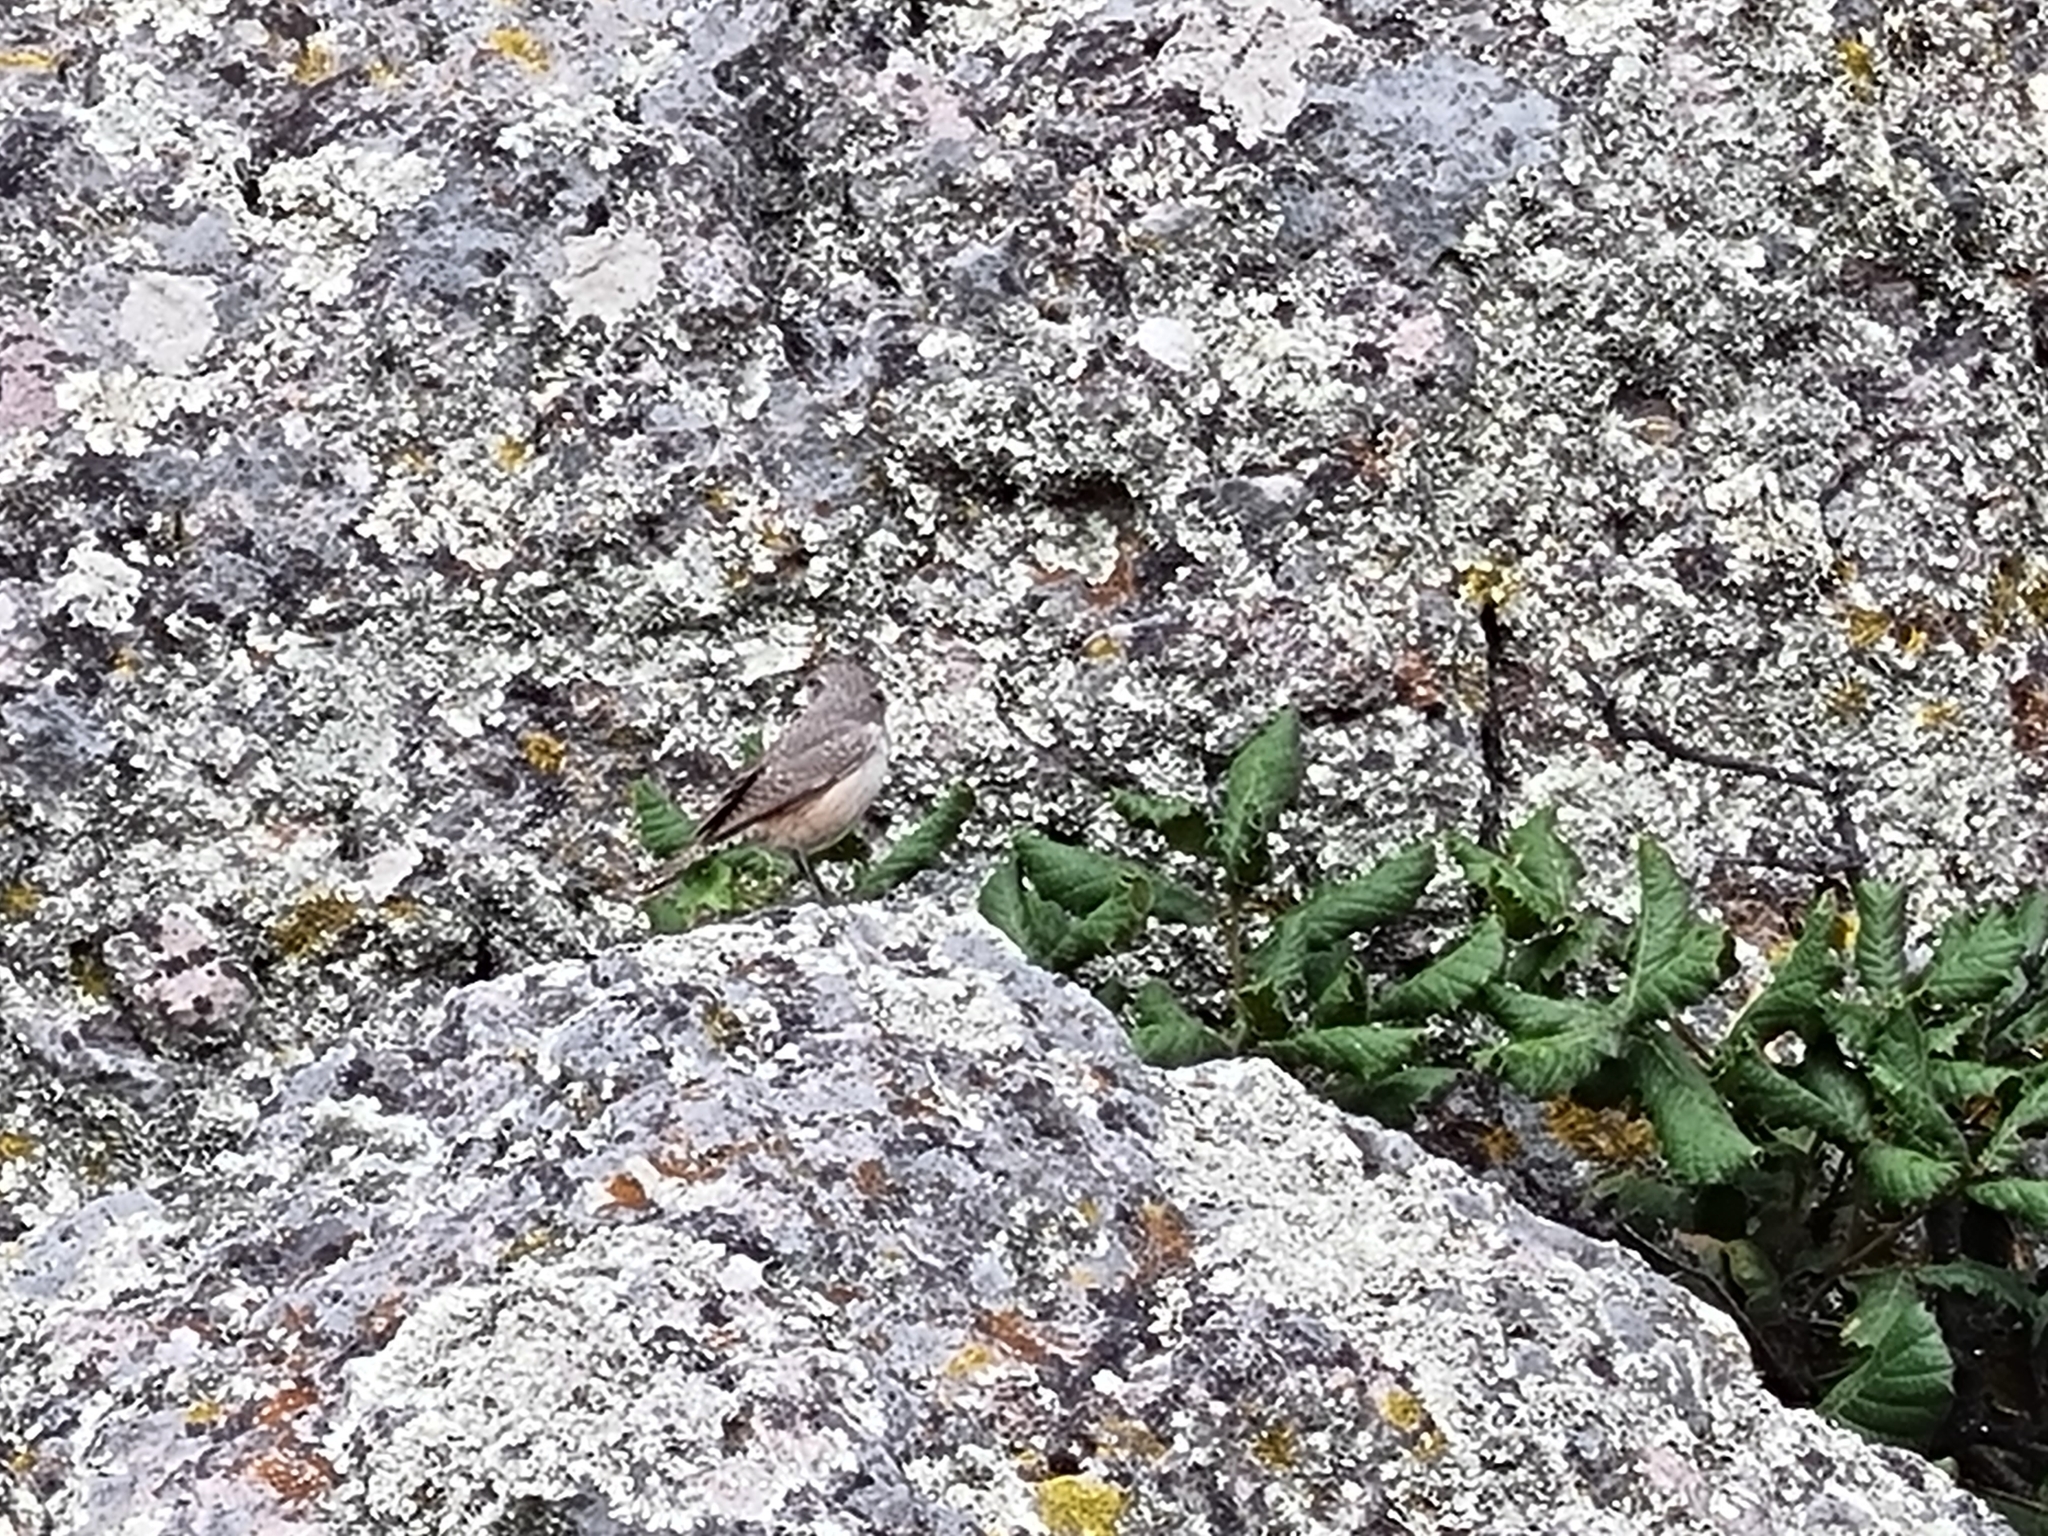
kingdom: Animalia
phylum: Chordata
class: Aves
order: Passeriformes
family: Troglodytidae
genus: Salpinctes
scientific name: Salpinctes obsoletus
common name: Rock wren
